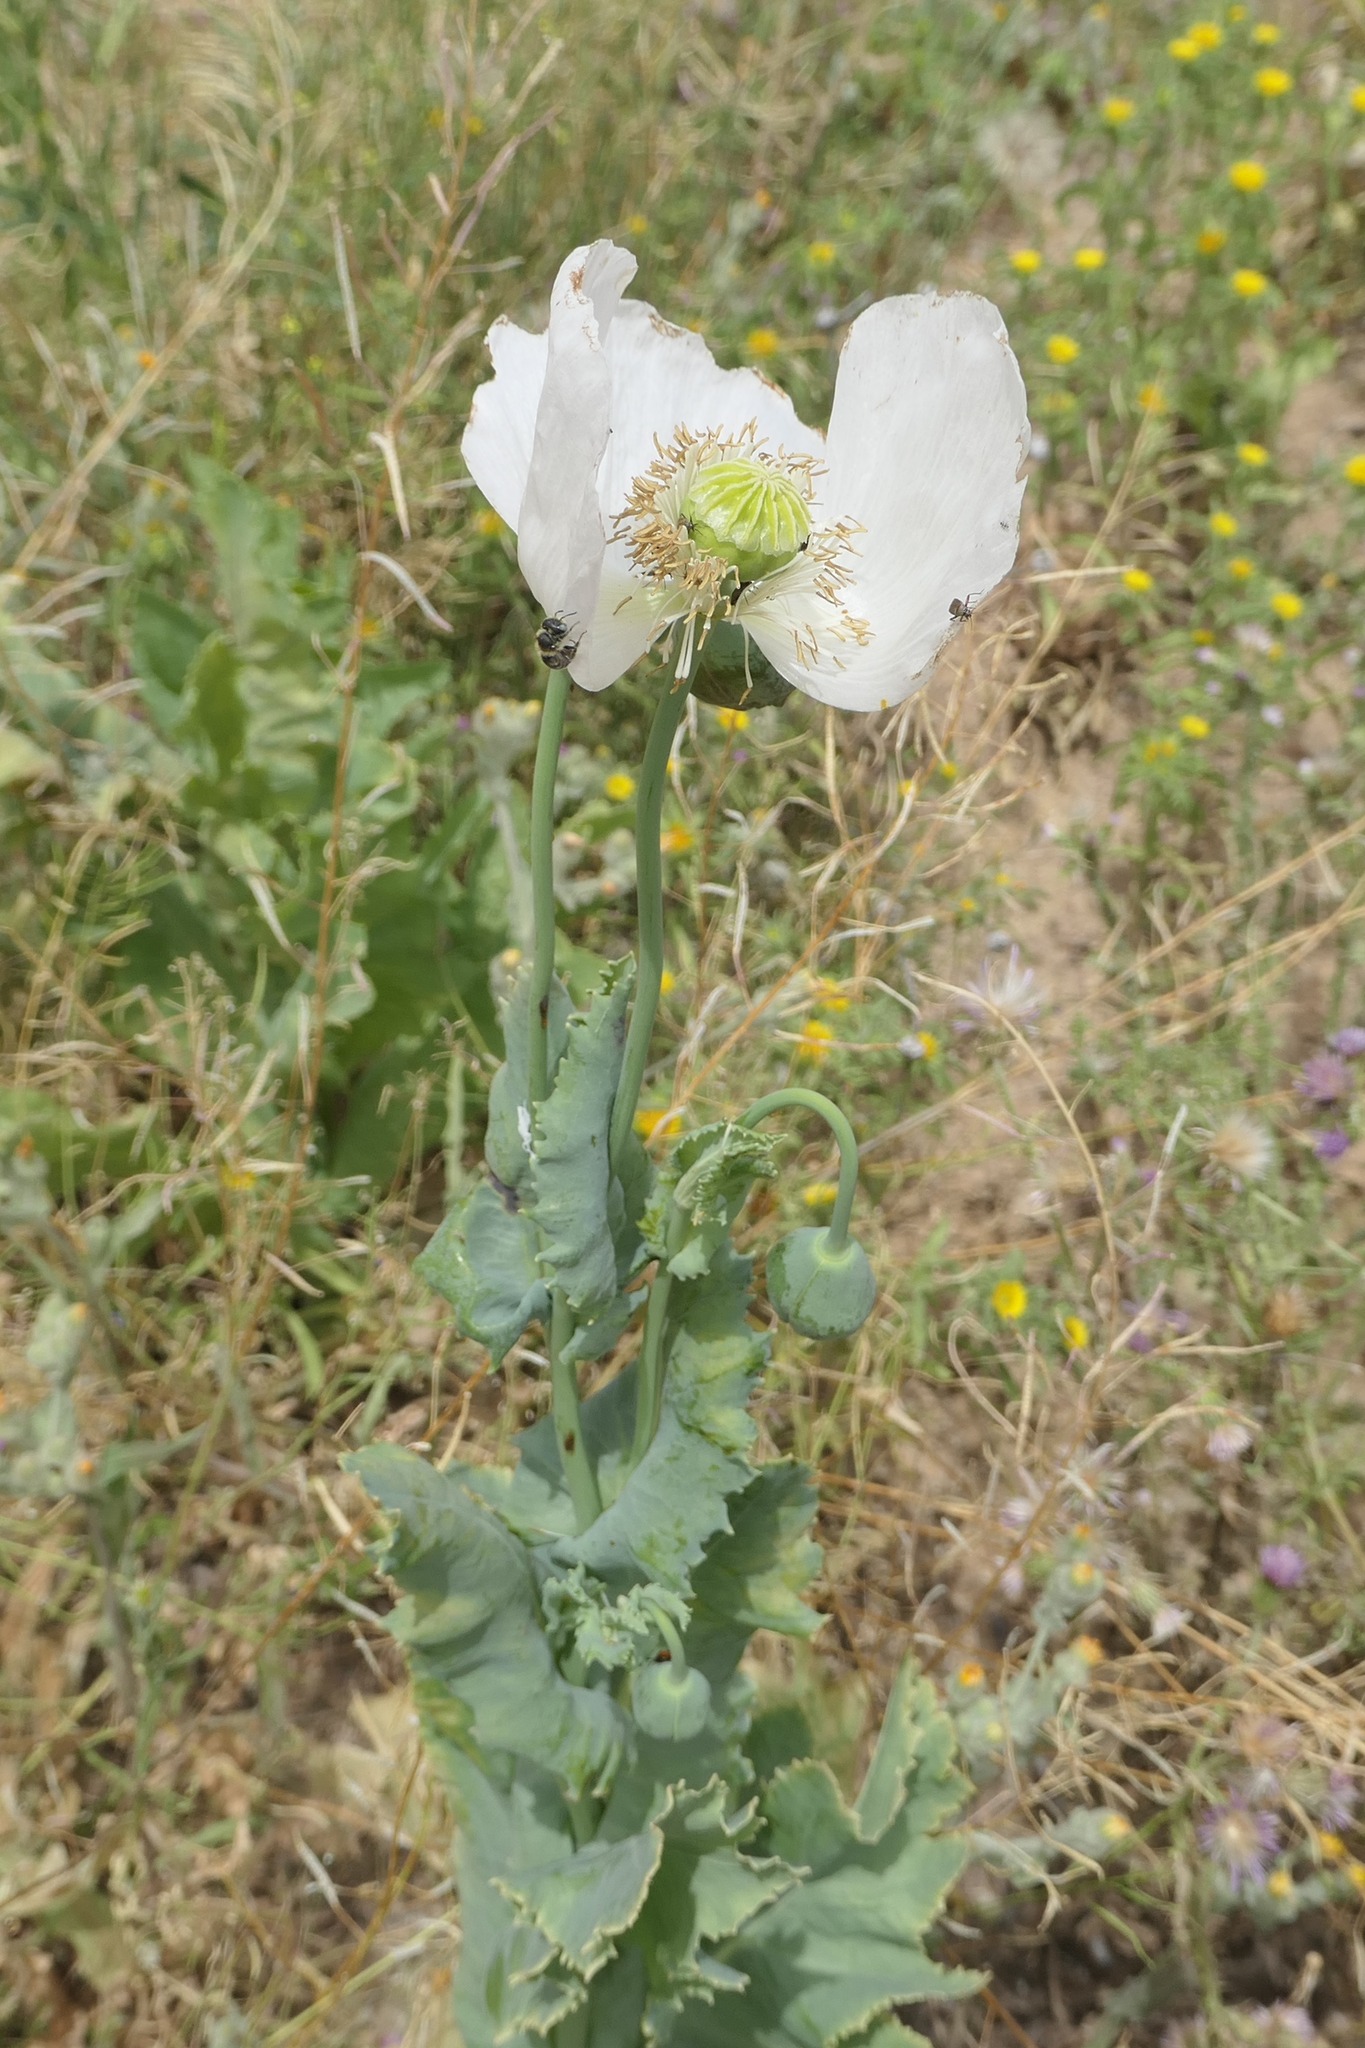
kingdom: Plantae
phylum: Tracheophyta
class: Magnoliopsida
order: Ranunculales
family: Papaveraceae
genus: Papaver
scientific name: Papaver somniferum
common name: Opium poppy
